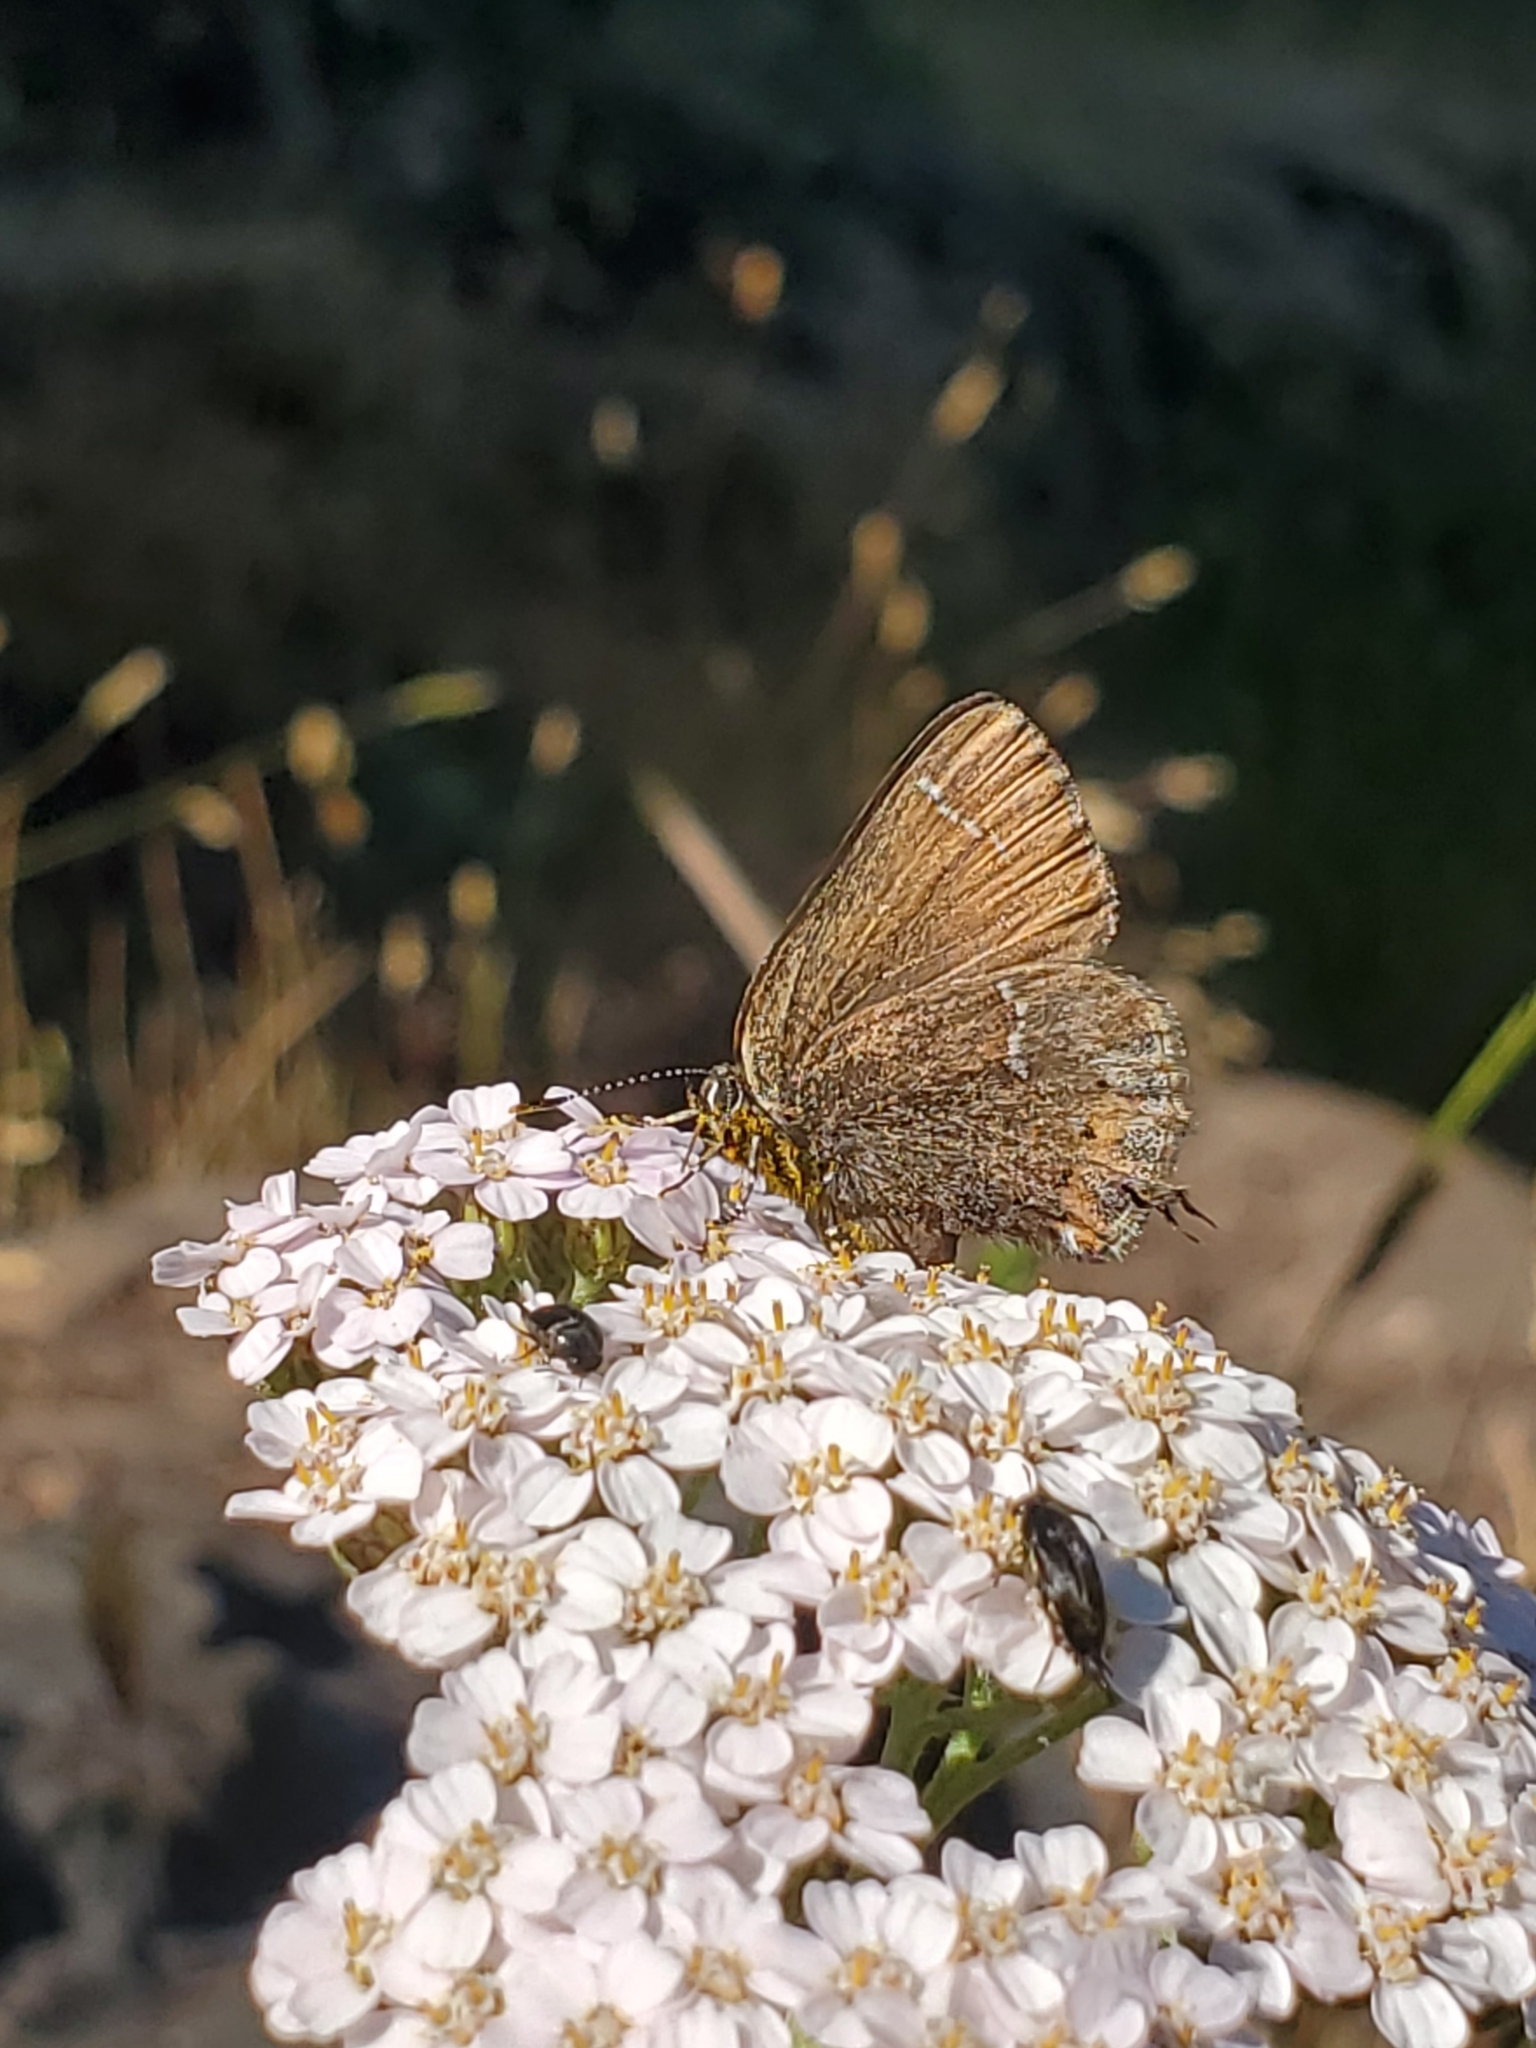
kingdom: Animalia
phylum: Arthropoda
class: Insecta
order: Lepidoptera
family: Lycaenidae
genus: Mitoura
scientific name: Mitoura gryneus
